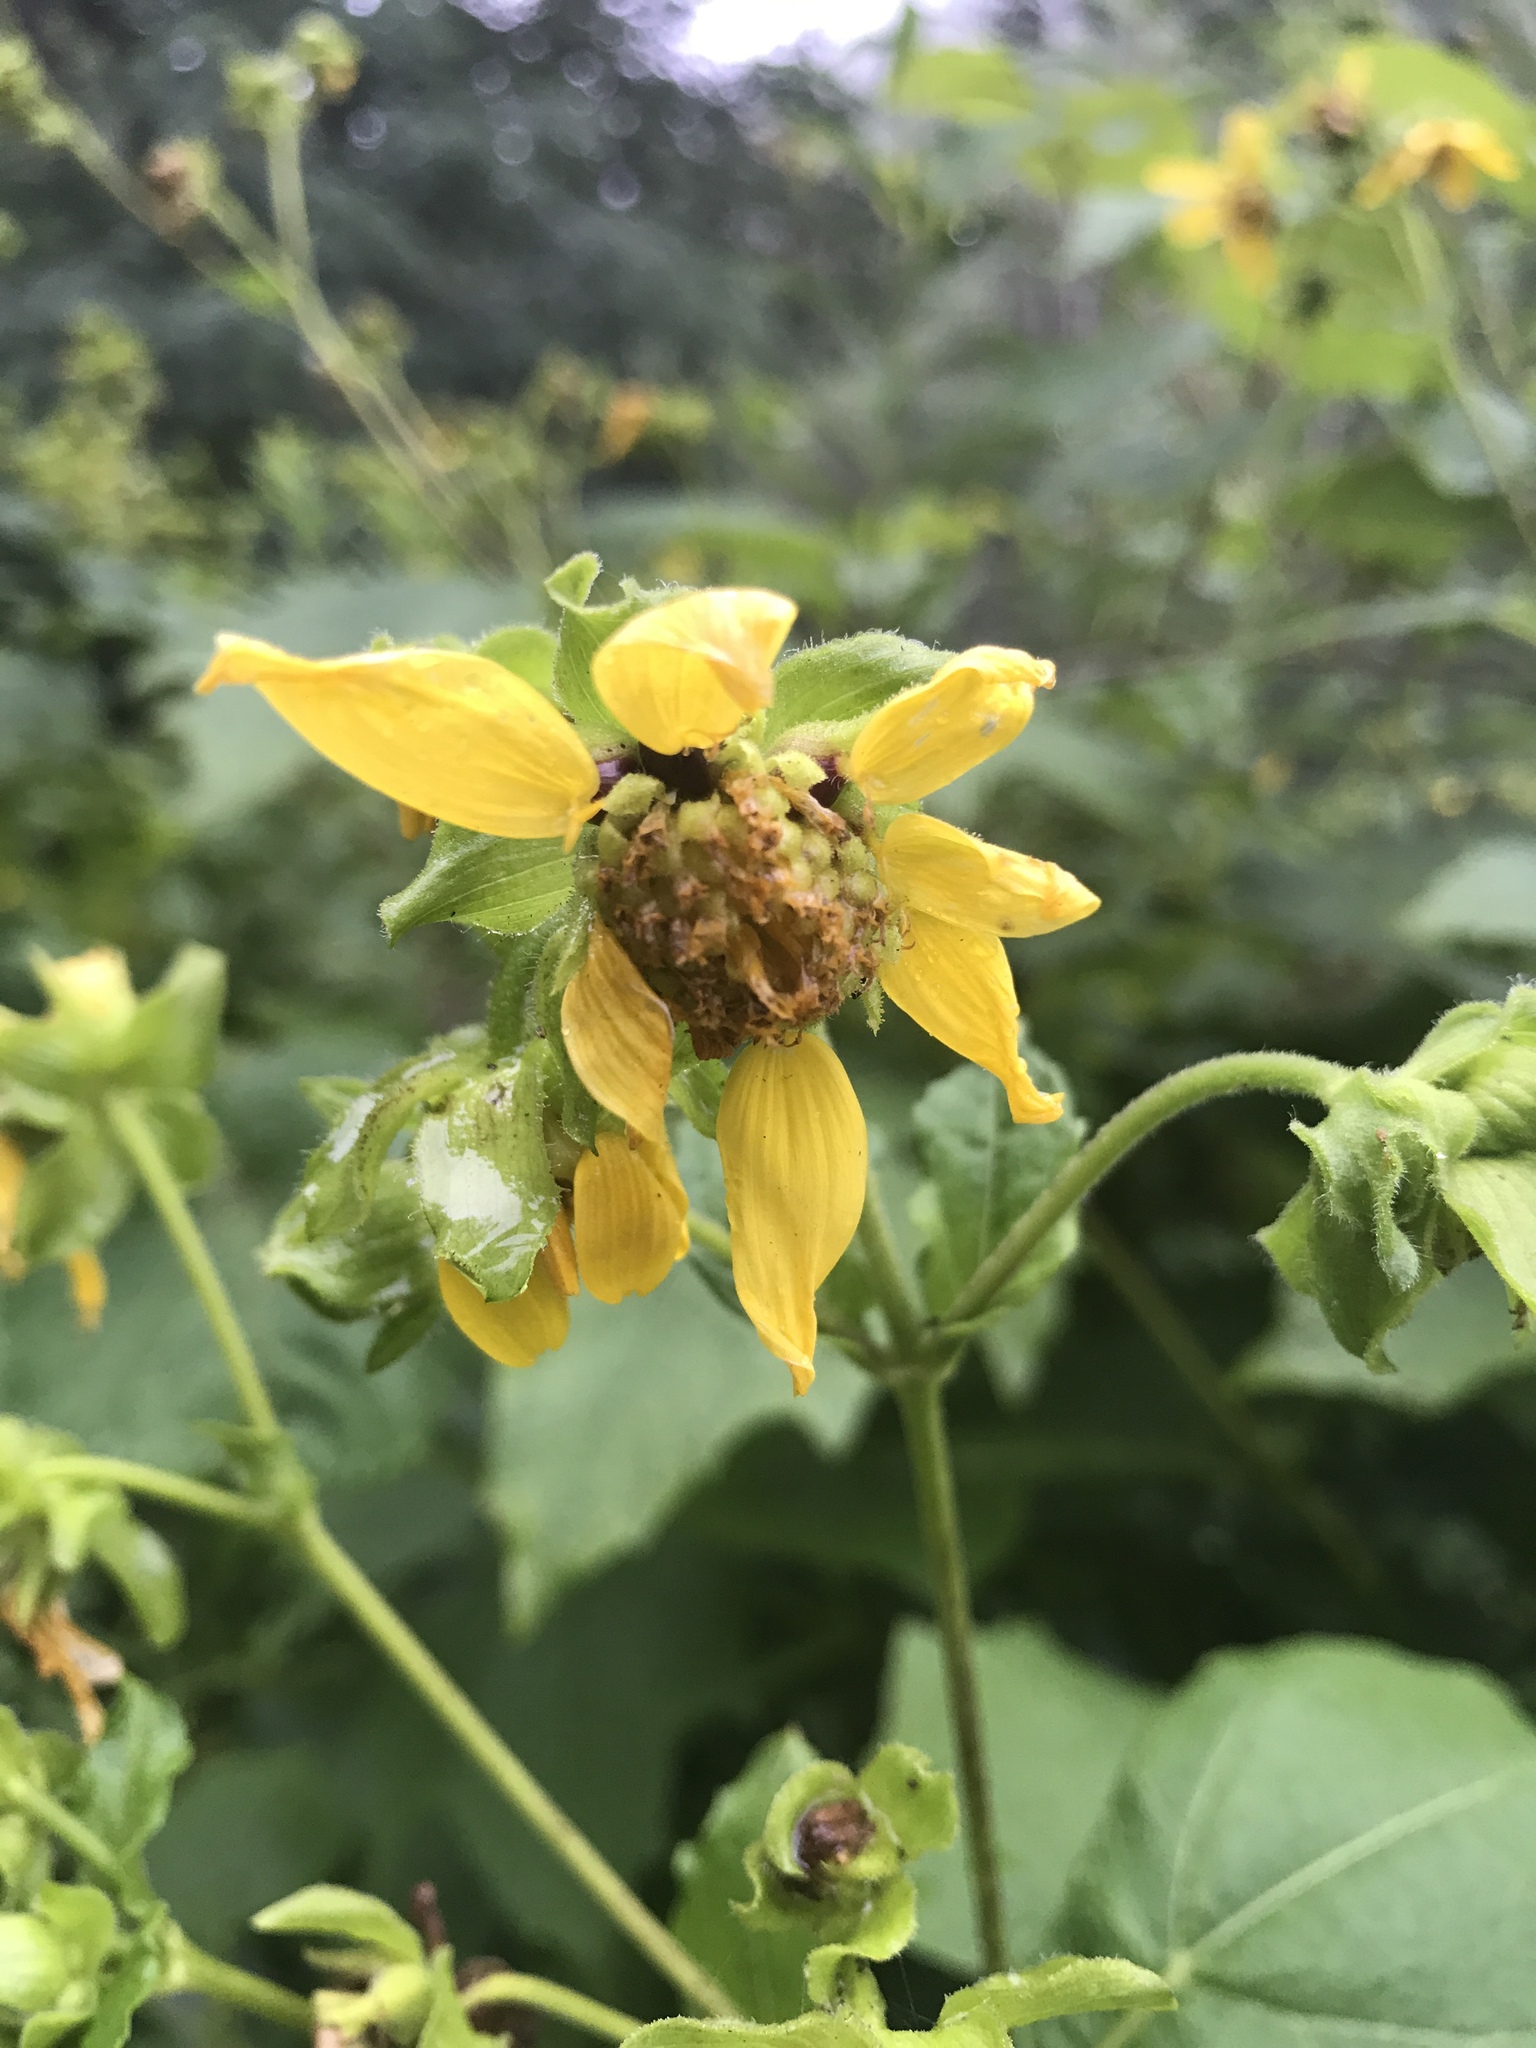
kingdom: Plantae
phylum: Tracheophyta
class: Magnoliopsida
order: Asterales
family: Asteraceae
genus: Smallanthus
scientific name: Smallanthus uvedalia
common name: Bear's-foot
